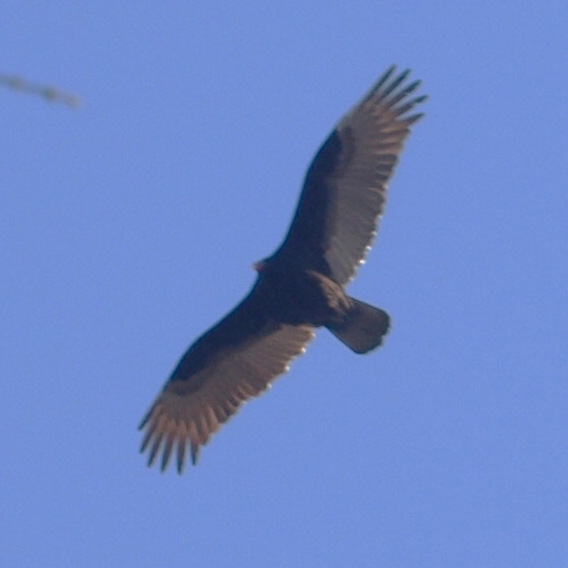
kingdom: Animalia
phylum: Chordata
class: Aves
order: Accipitriformes
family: Cathartidae
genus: Cathartes
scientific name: Cathartes aura
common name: Turkey vulture
